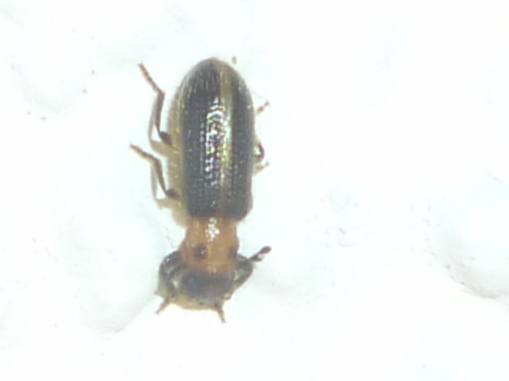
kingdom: Animalia
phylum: Arthropoda
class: Insecta
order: Coleoptera
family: Cleridae
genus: Cregya
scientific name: Cregya oculata
